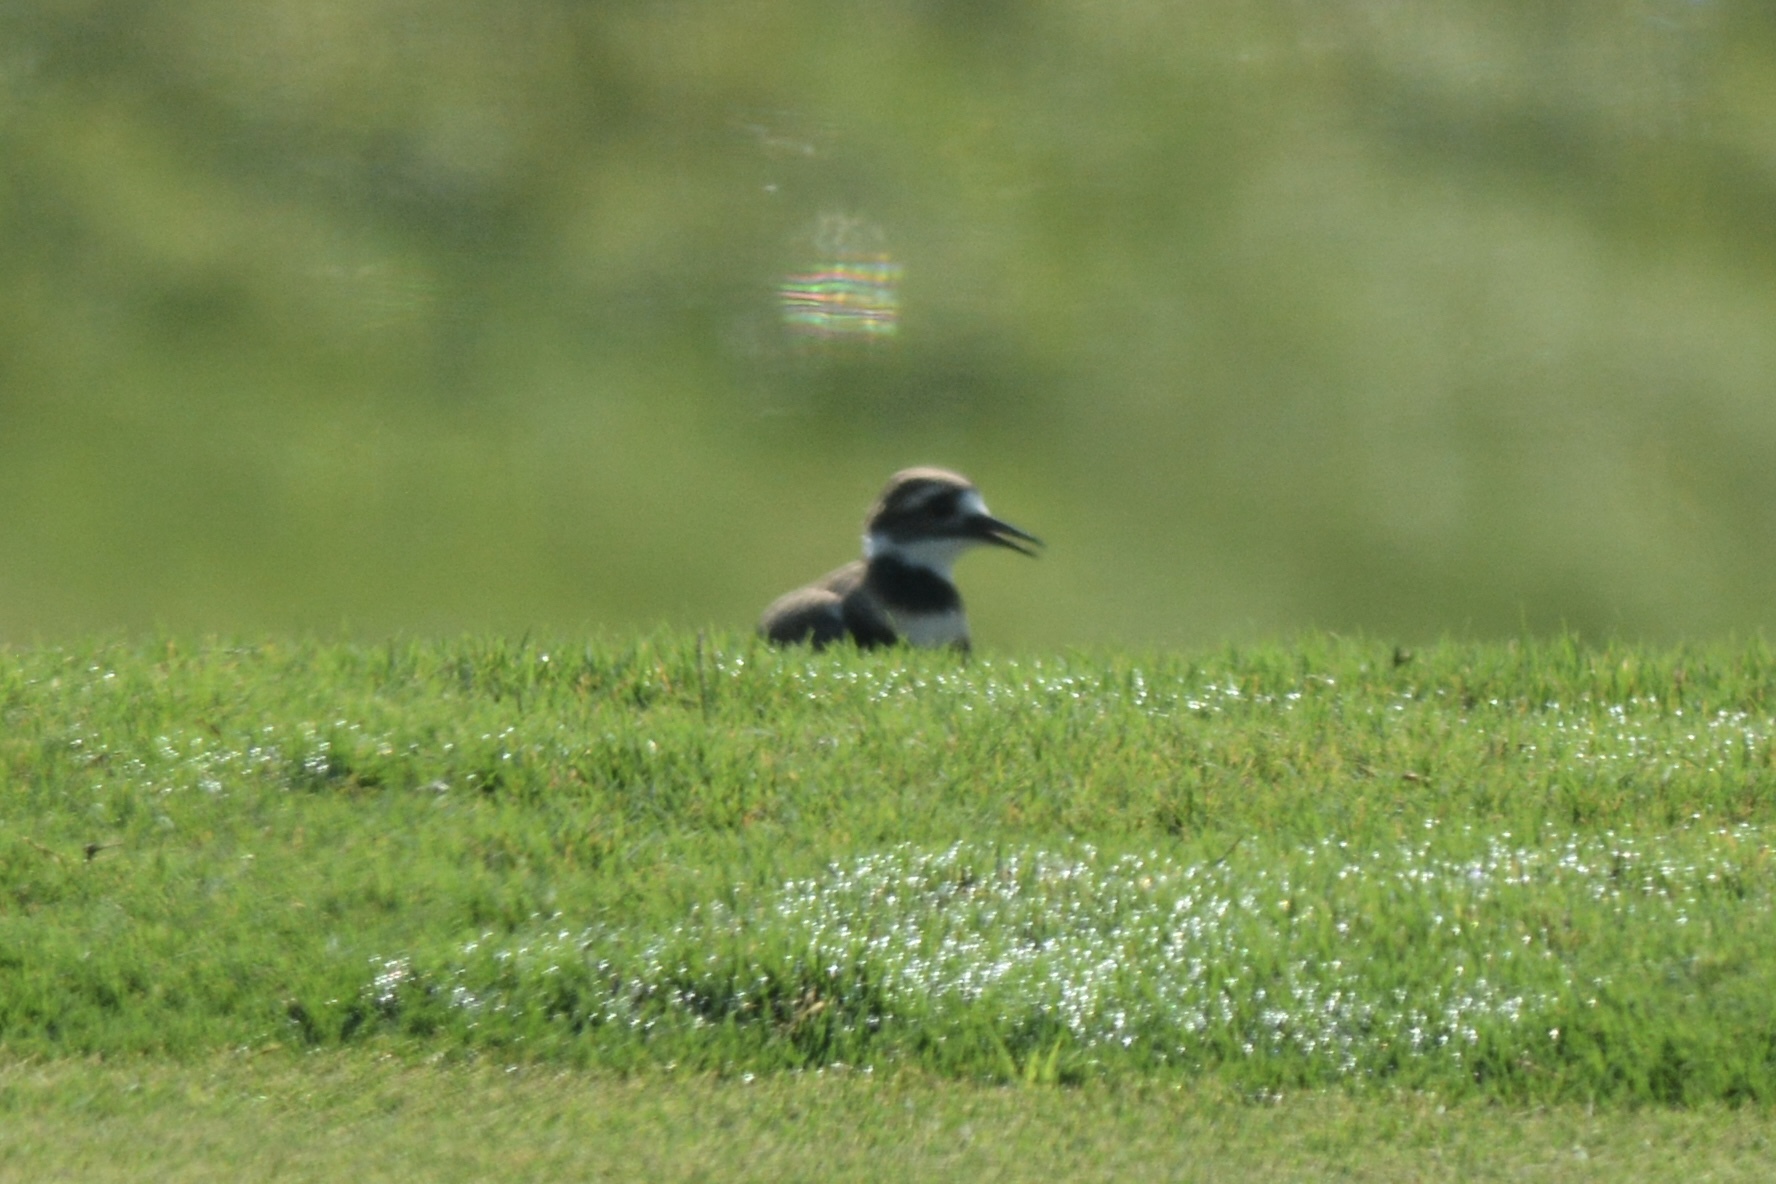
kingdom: Animalia
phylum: Chordata
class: Aves
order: Charadriiformes
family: Charadriidae
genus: Charadrius
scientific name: Charadrius vociferus
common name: Killdeer
